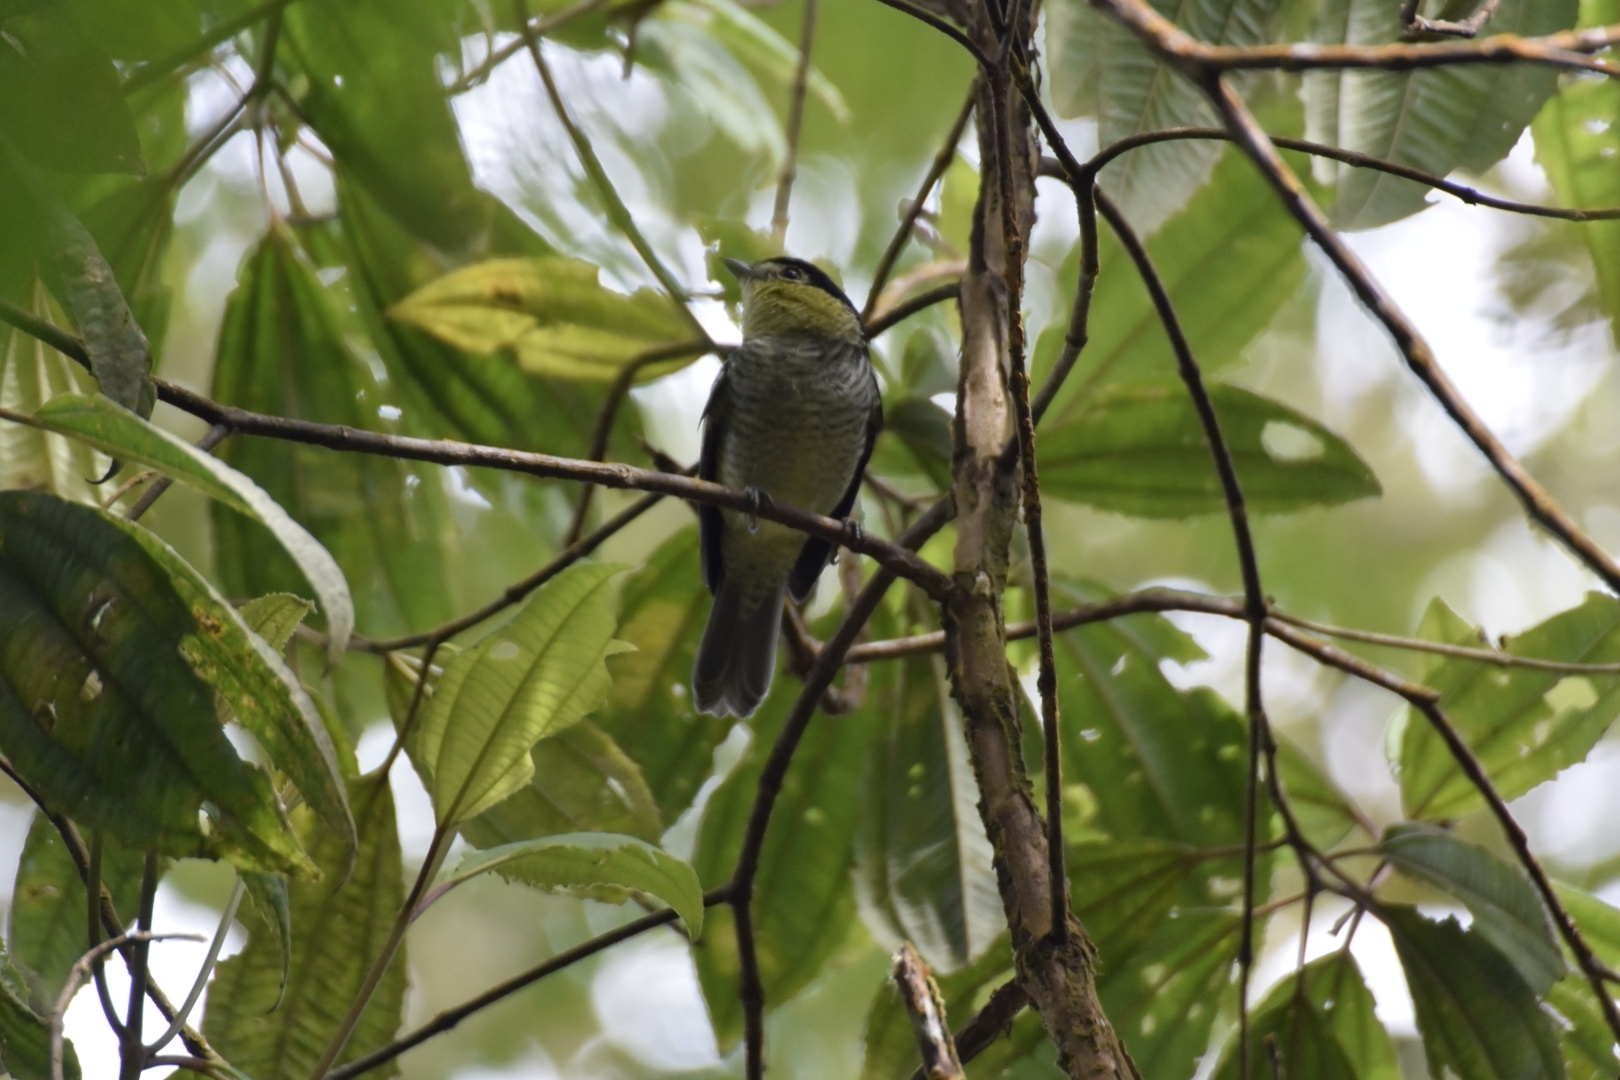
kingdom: Animalia
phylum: Chordata
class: Aves
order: Passeriformes
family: Cotingidae
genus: Pachyramphus
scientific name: Pachyramphus versicolor
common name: Barred becard
